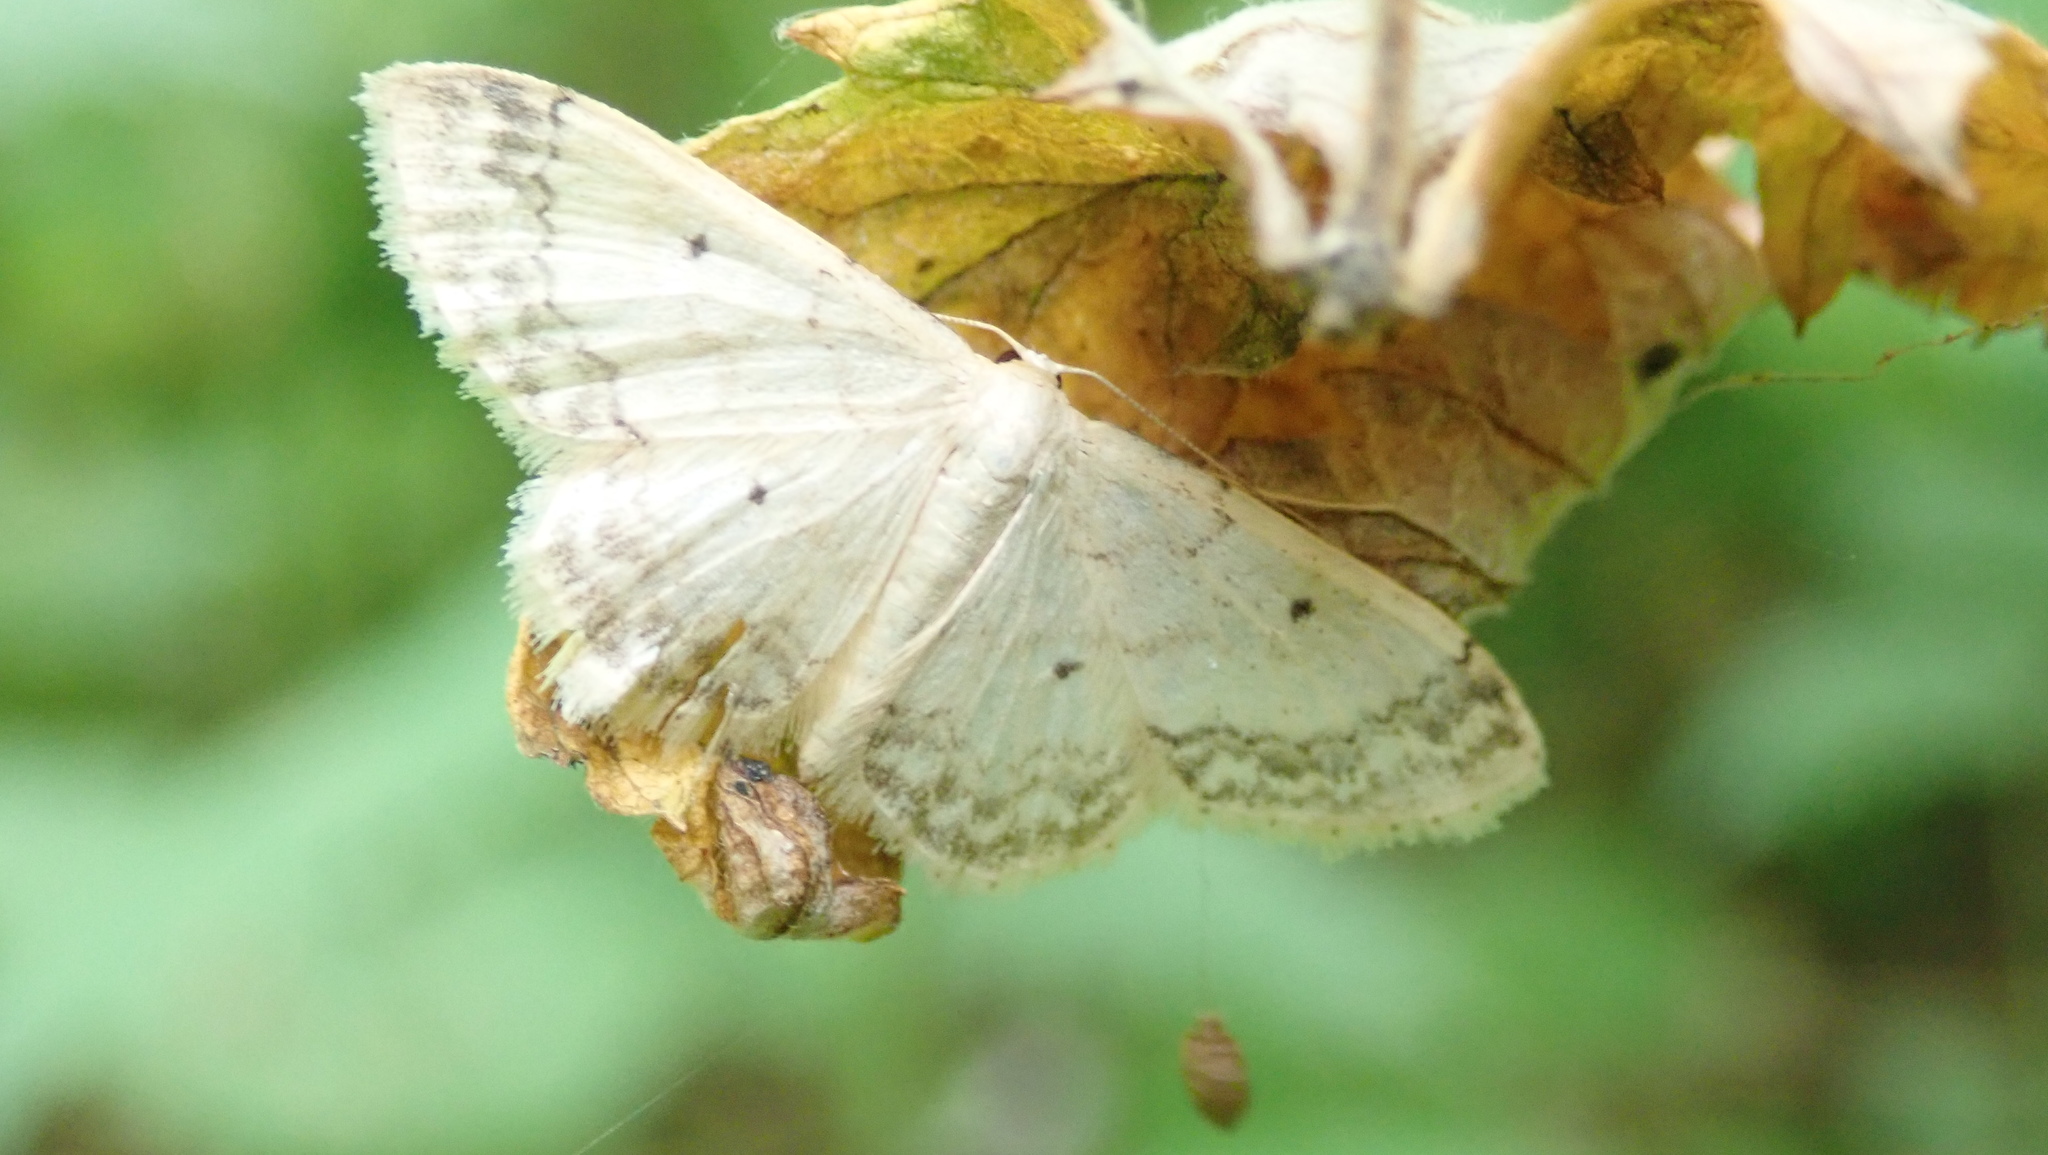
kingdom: Animalia
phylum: Arthropoda
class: Insecta
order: Lepidoptera
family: Geometridae
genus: Idaea
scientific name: Idaea biselata
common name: Small fan-footed wave
